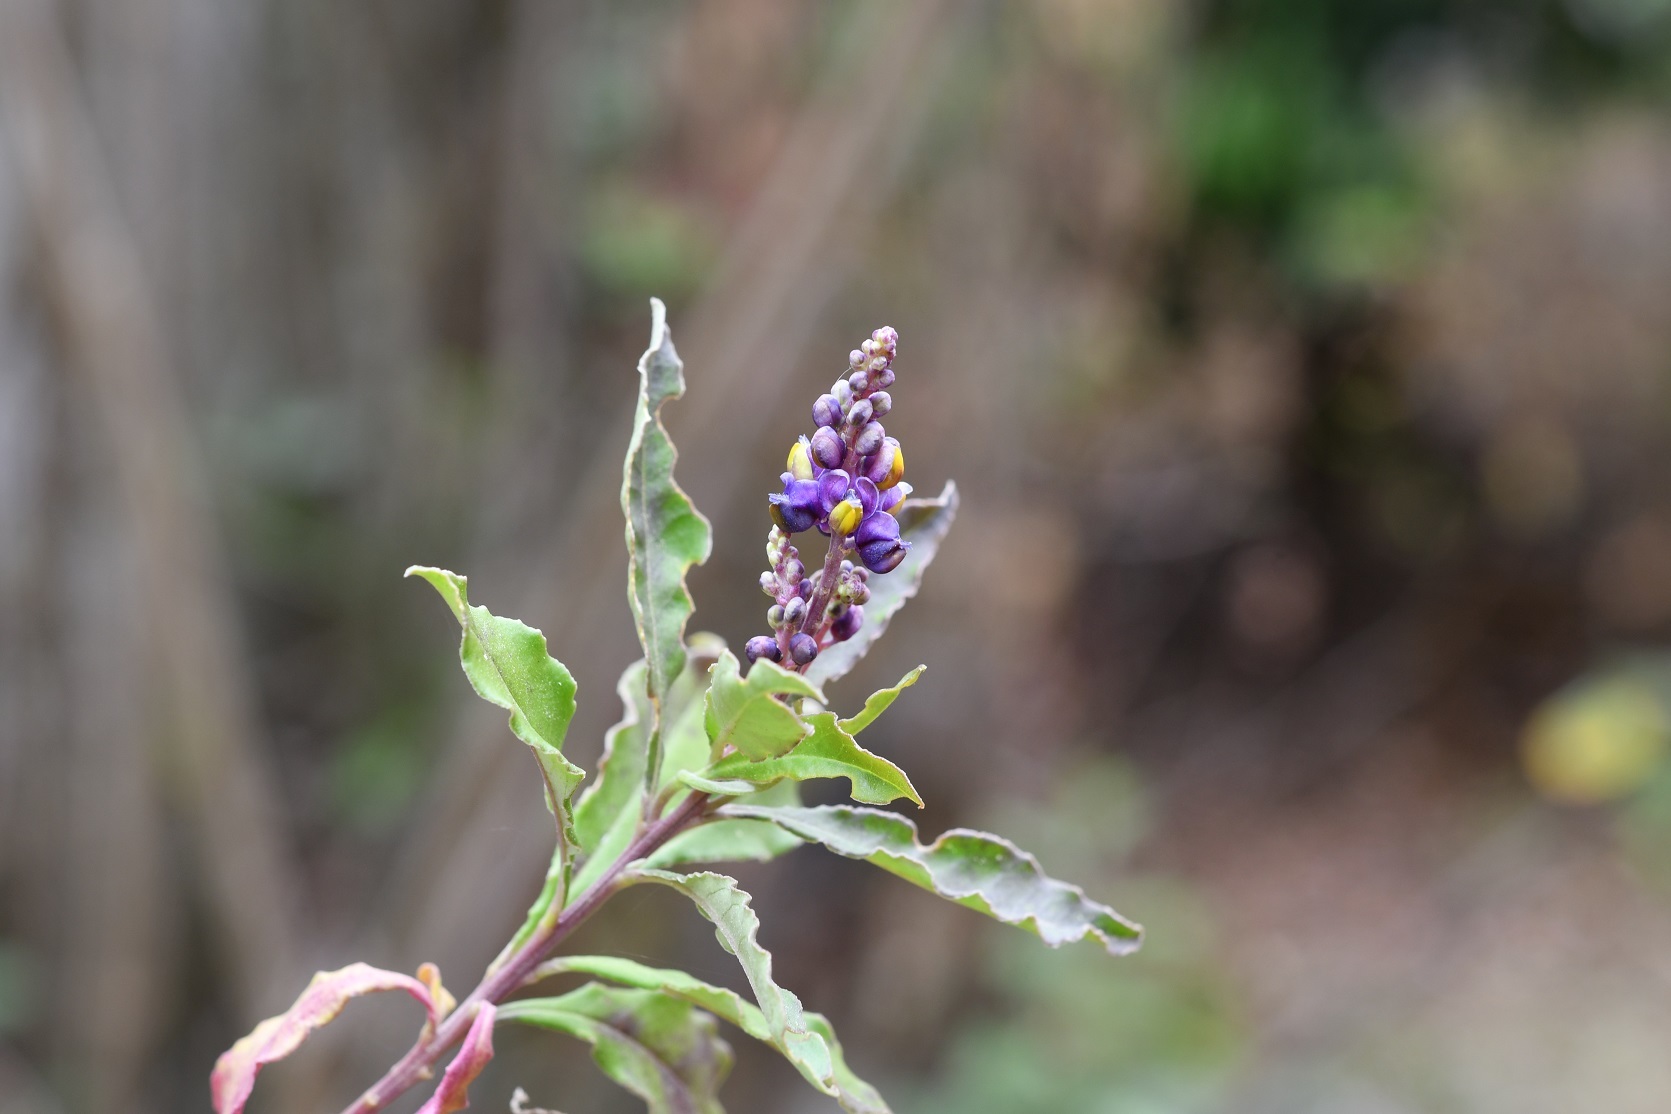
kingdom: Plantae
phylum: Tracheophyta
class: Magnoliopsida
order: Fabales
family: Polygalaceae
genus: Monnina
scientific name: Monnina xalapensis
